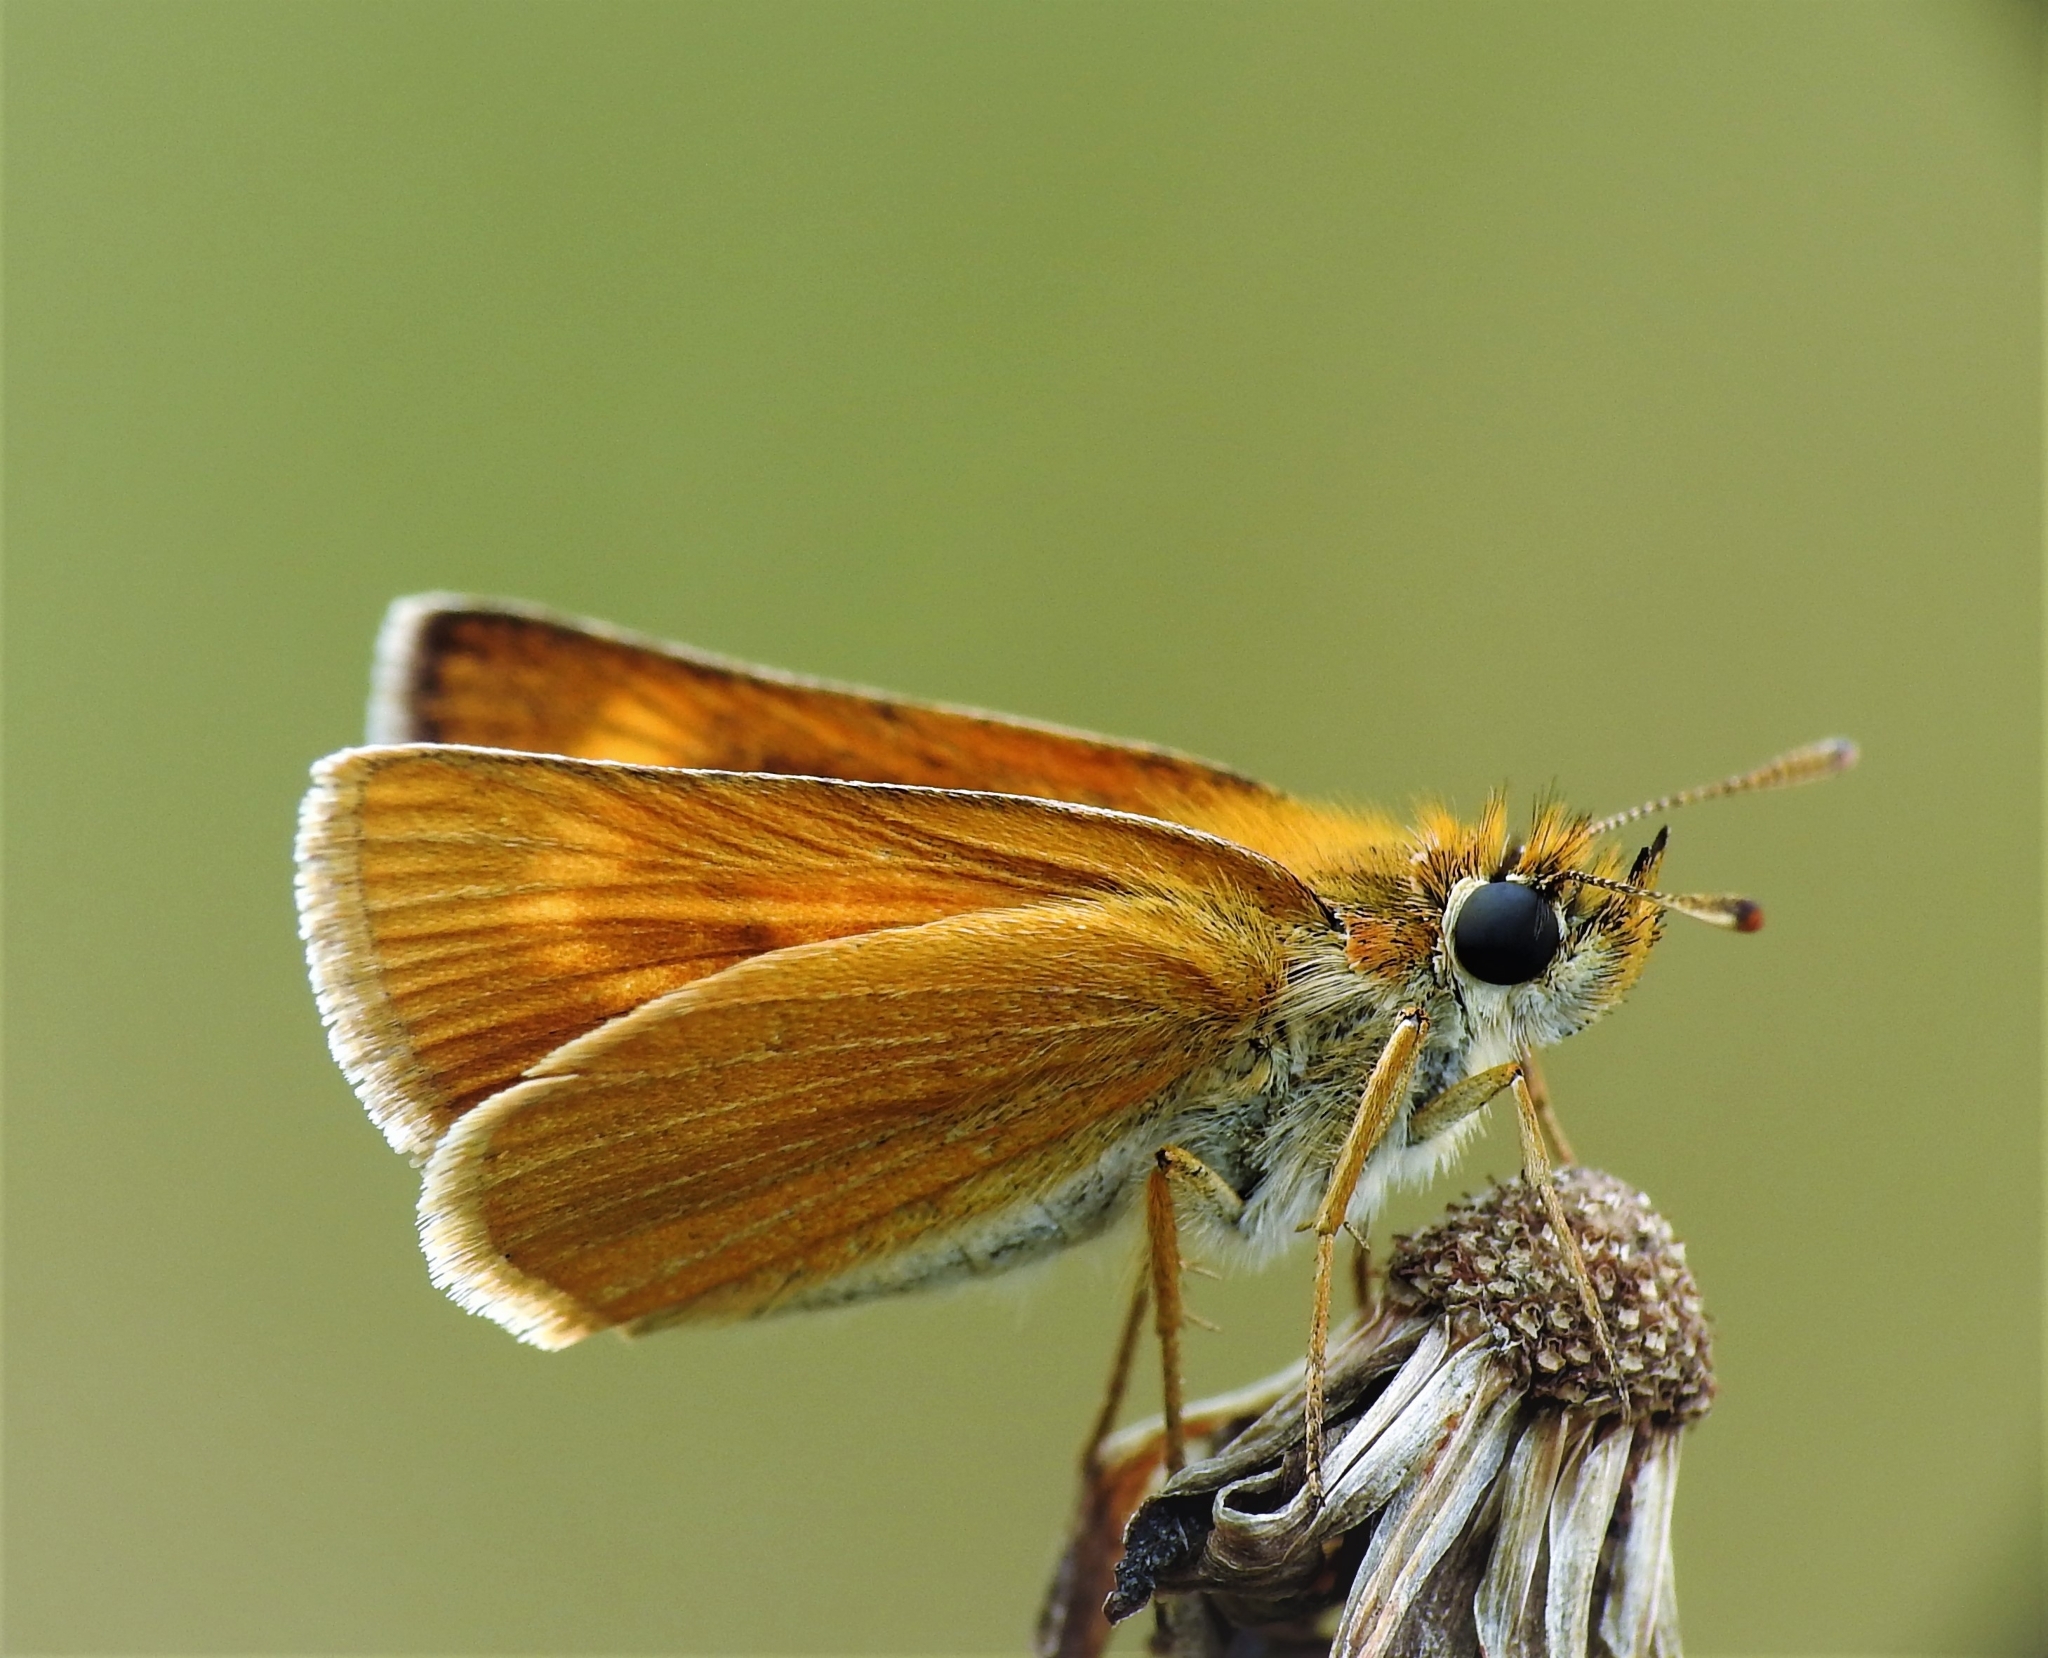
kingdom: Animalia
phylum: Arthropoda
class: Insecta
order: Lepidoptera
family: Hesperiidae
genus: Thymelicus
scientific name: Thymelicus acteon
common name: Lulworth skipper
